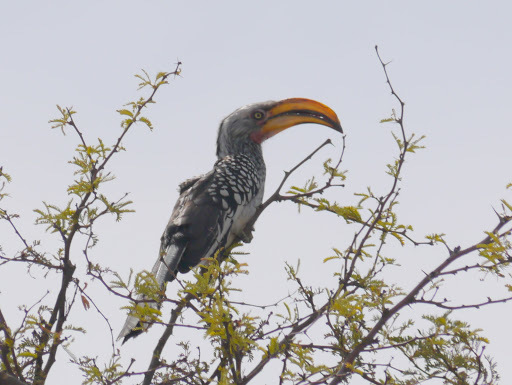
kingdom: Animalia
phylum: Chordata
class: Aves
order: Bucerotiformes
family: Bucerotidae
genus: Tockus
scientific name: Tockus leucomelas
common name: Southern yellow-billed hornbill
